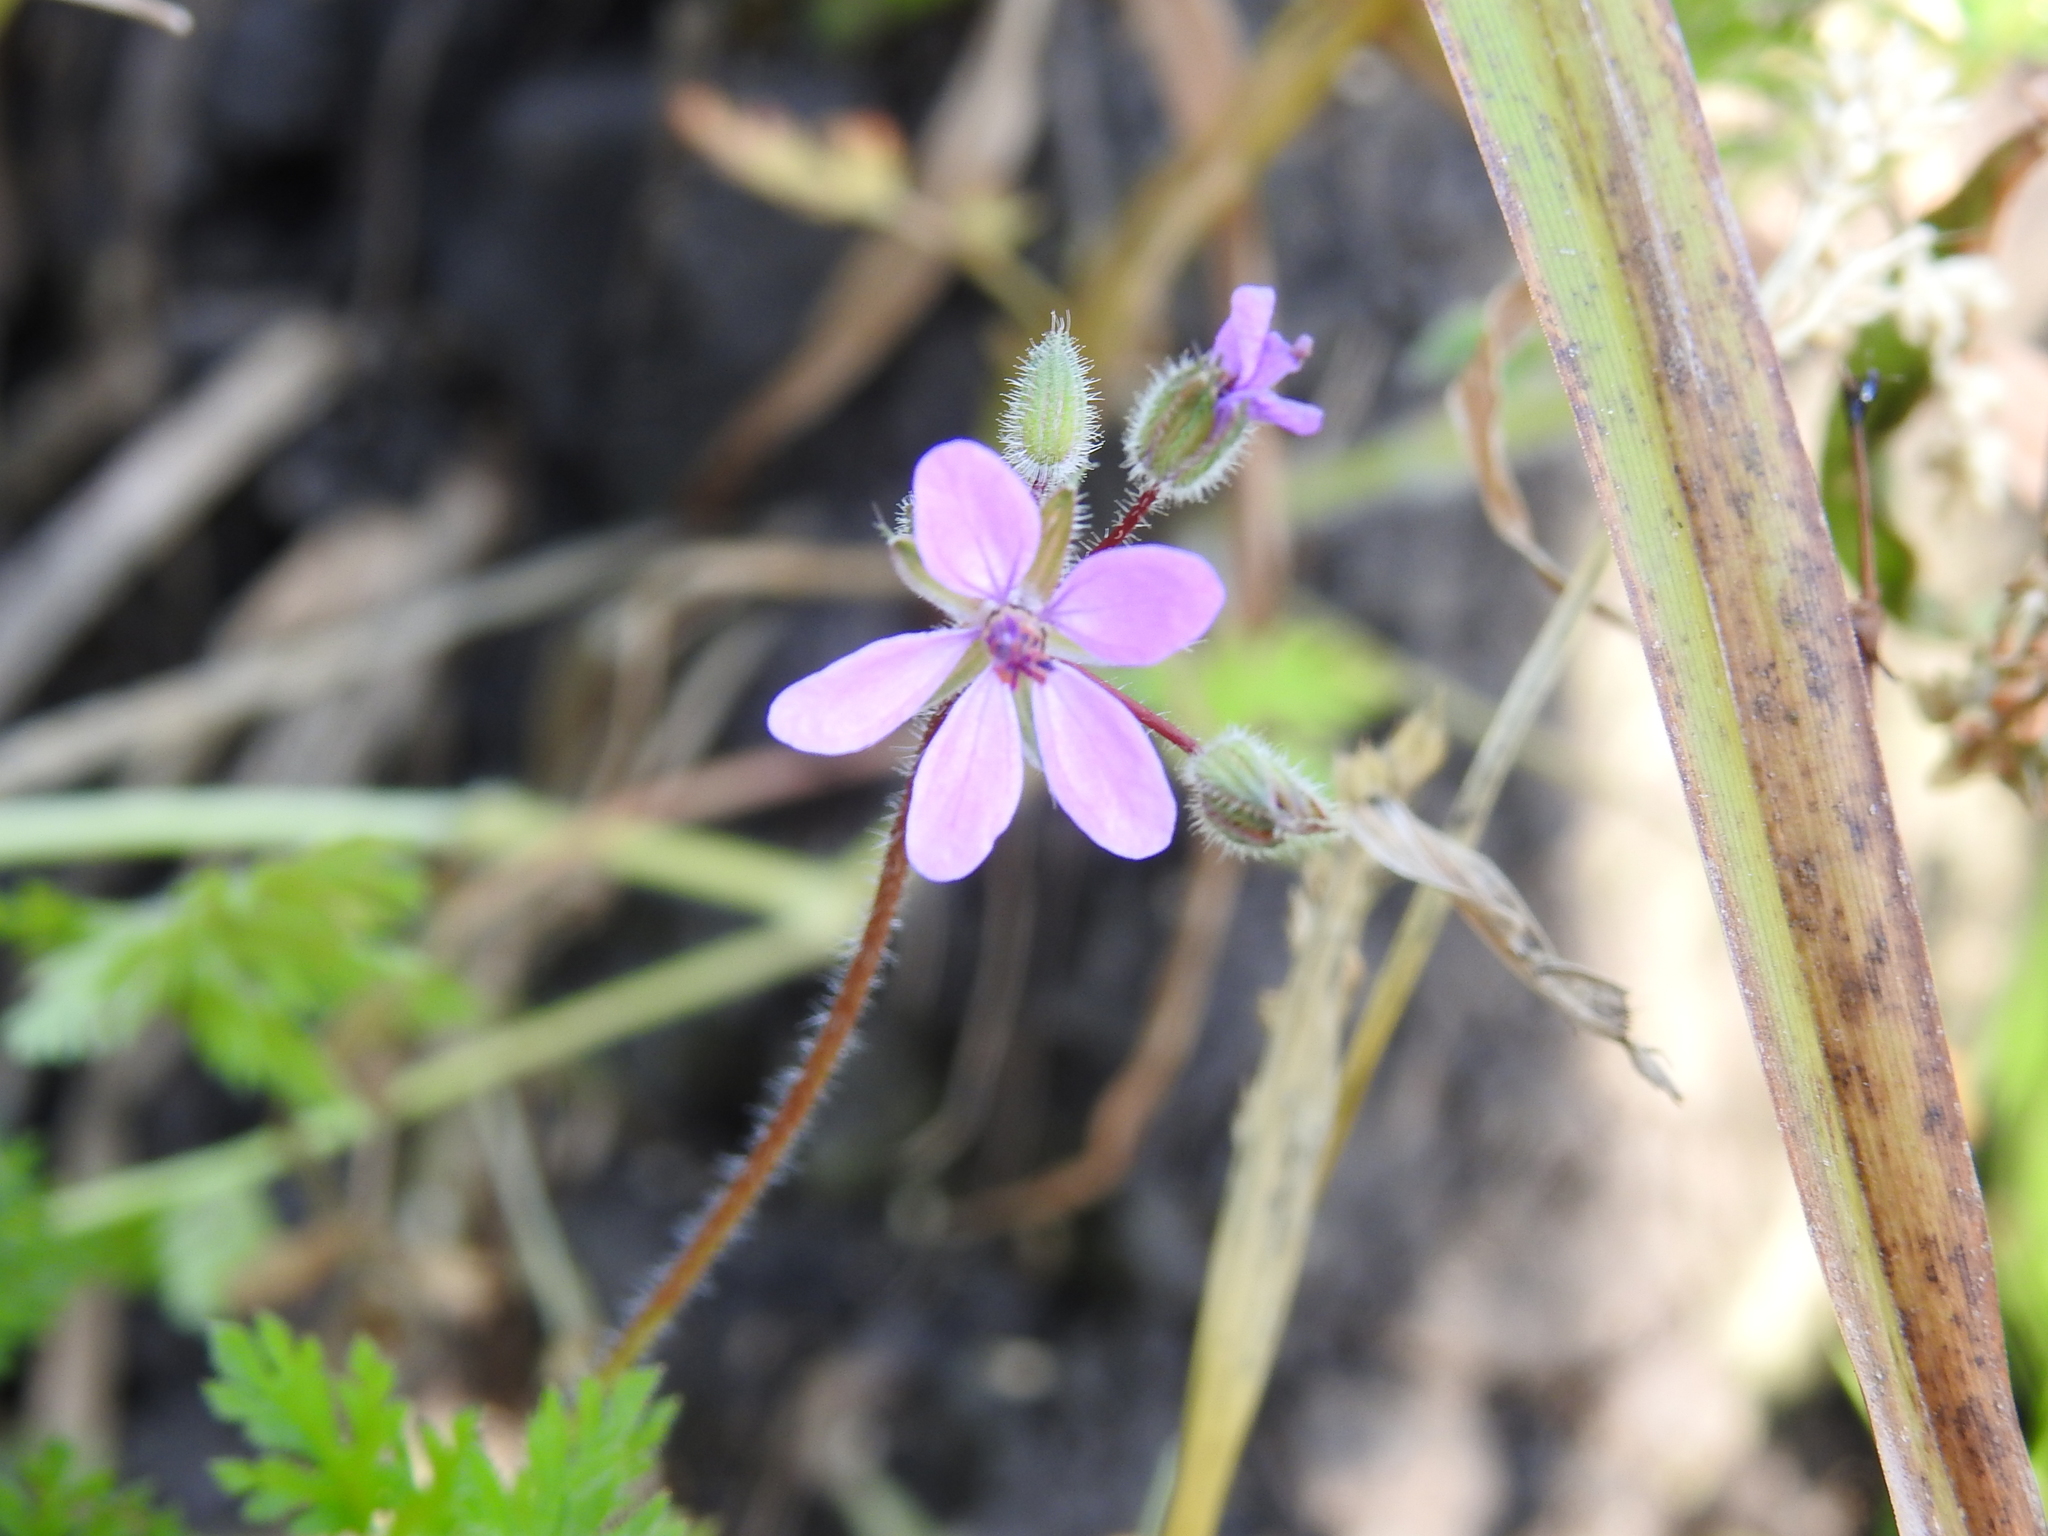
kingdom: Plantae
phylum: Tracheophyta
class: Magnoliopsida
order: Geraniales
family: Geraniaceae
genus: Erodium
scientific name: Erodium cicutarium
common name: Common stork's-bill
